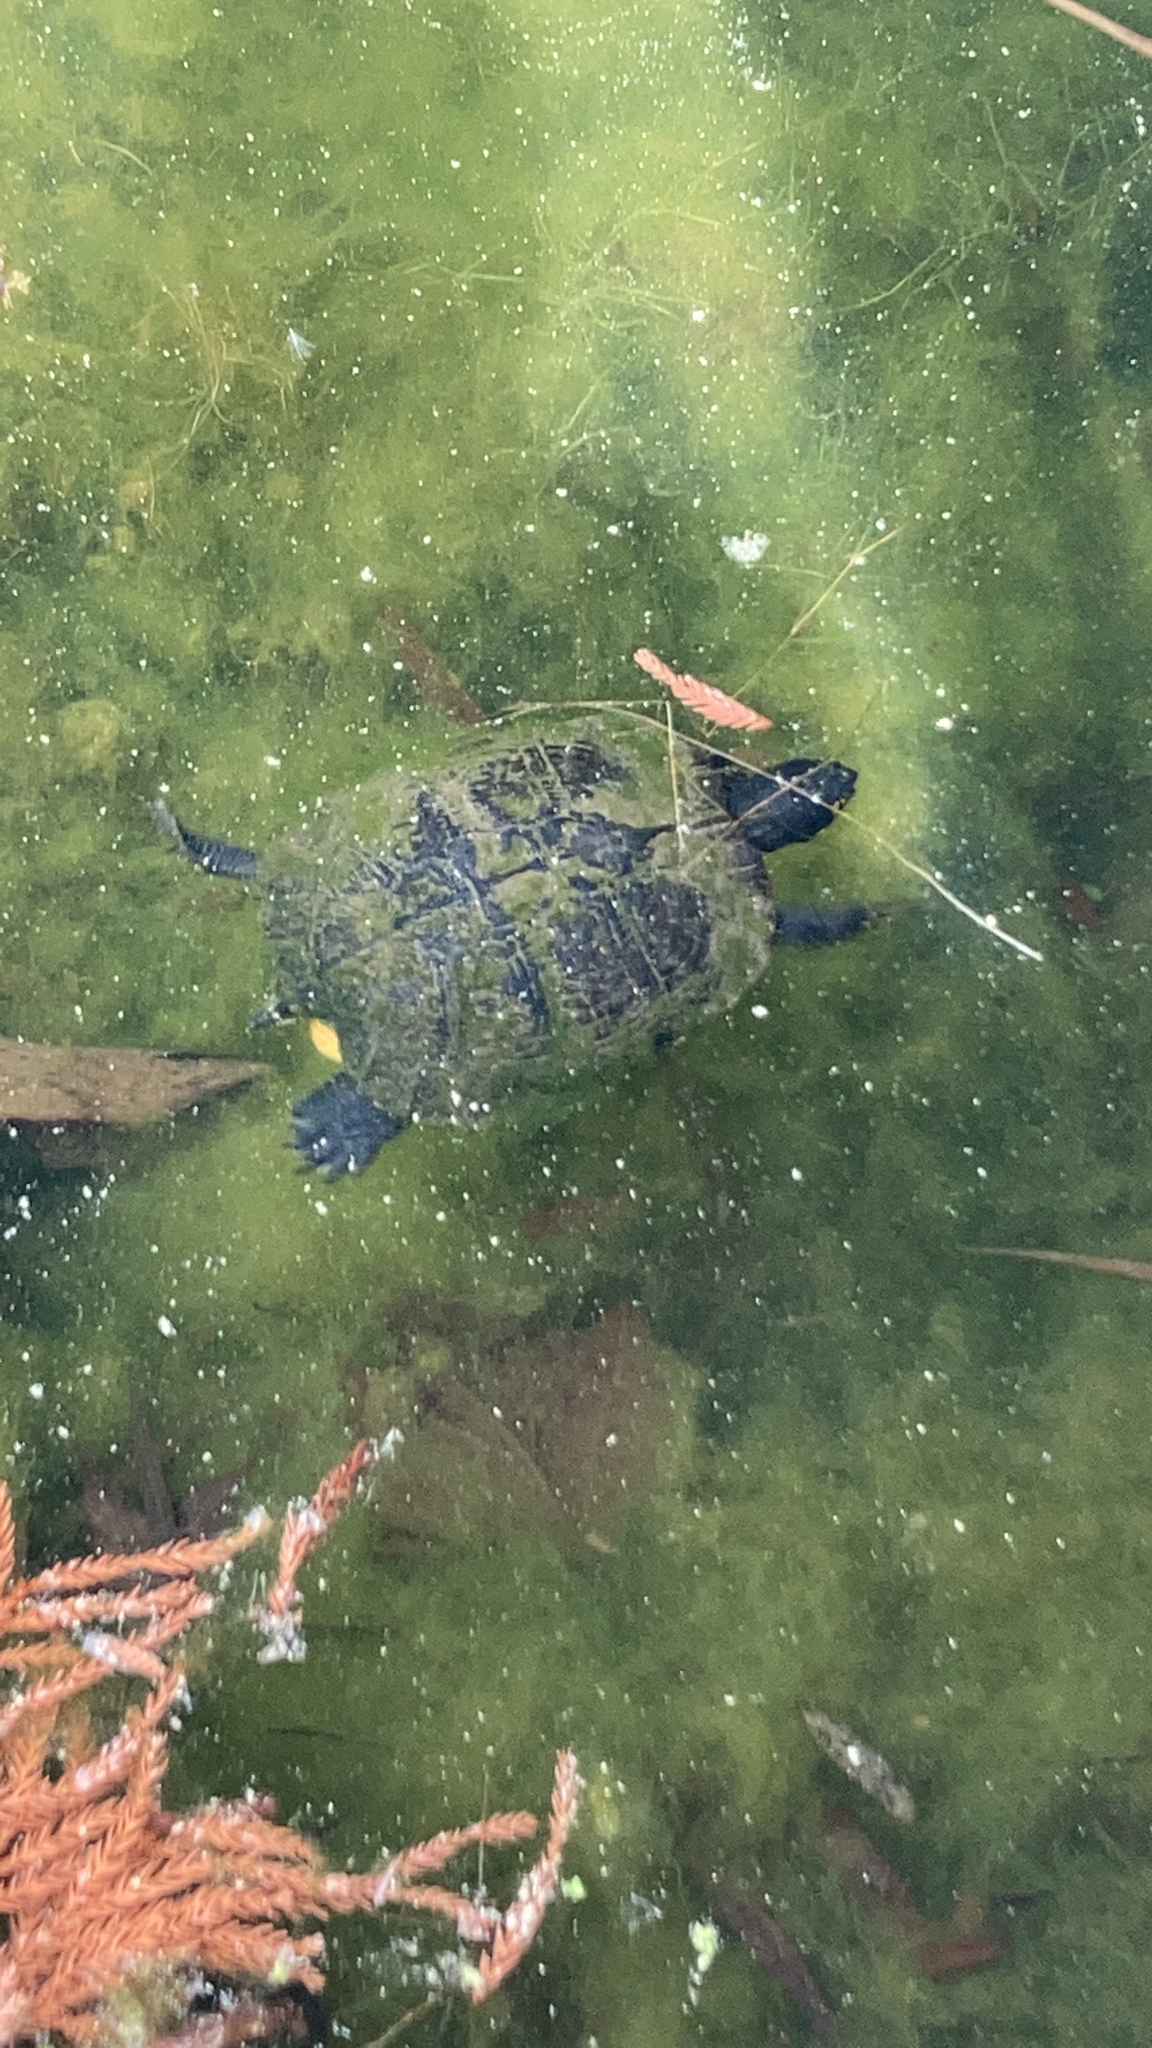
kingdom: Animalia
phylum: Chordata
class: Testudines
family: Emydidae
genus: Trachemys
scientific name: Trachemys scripta
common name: Slider
